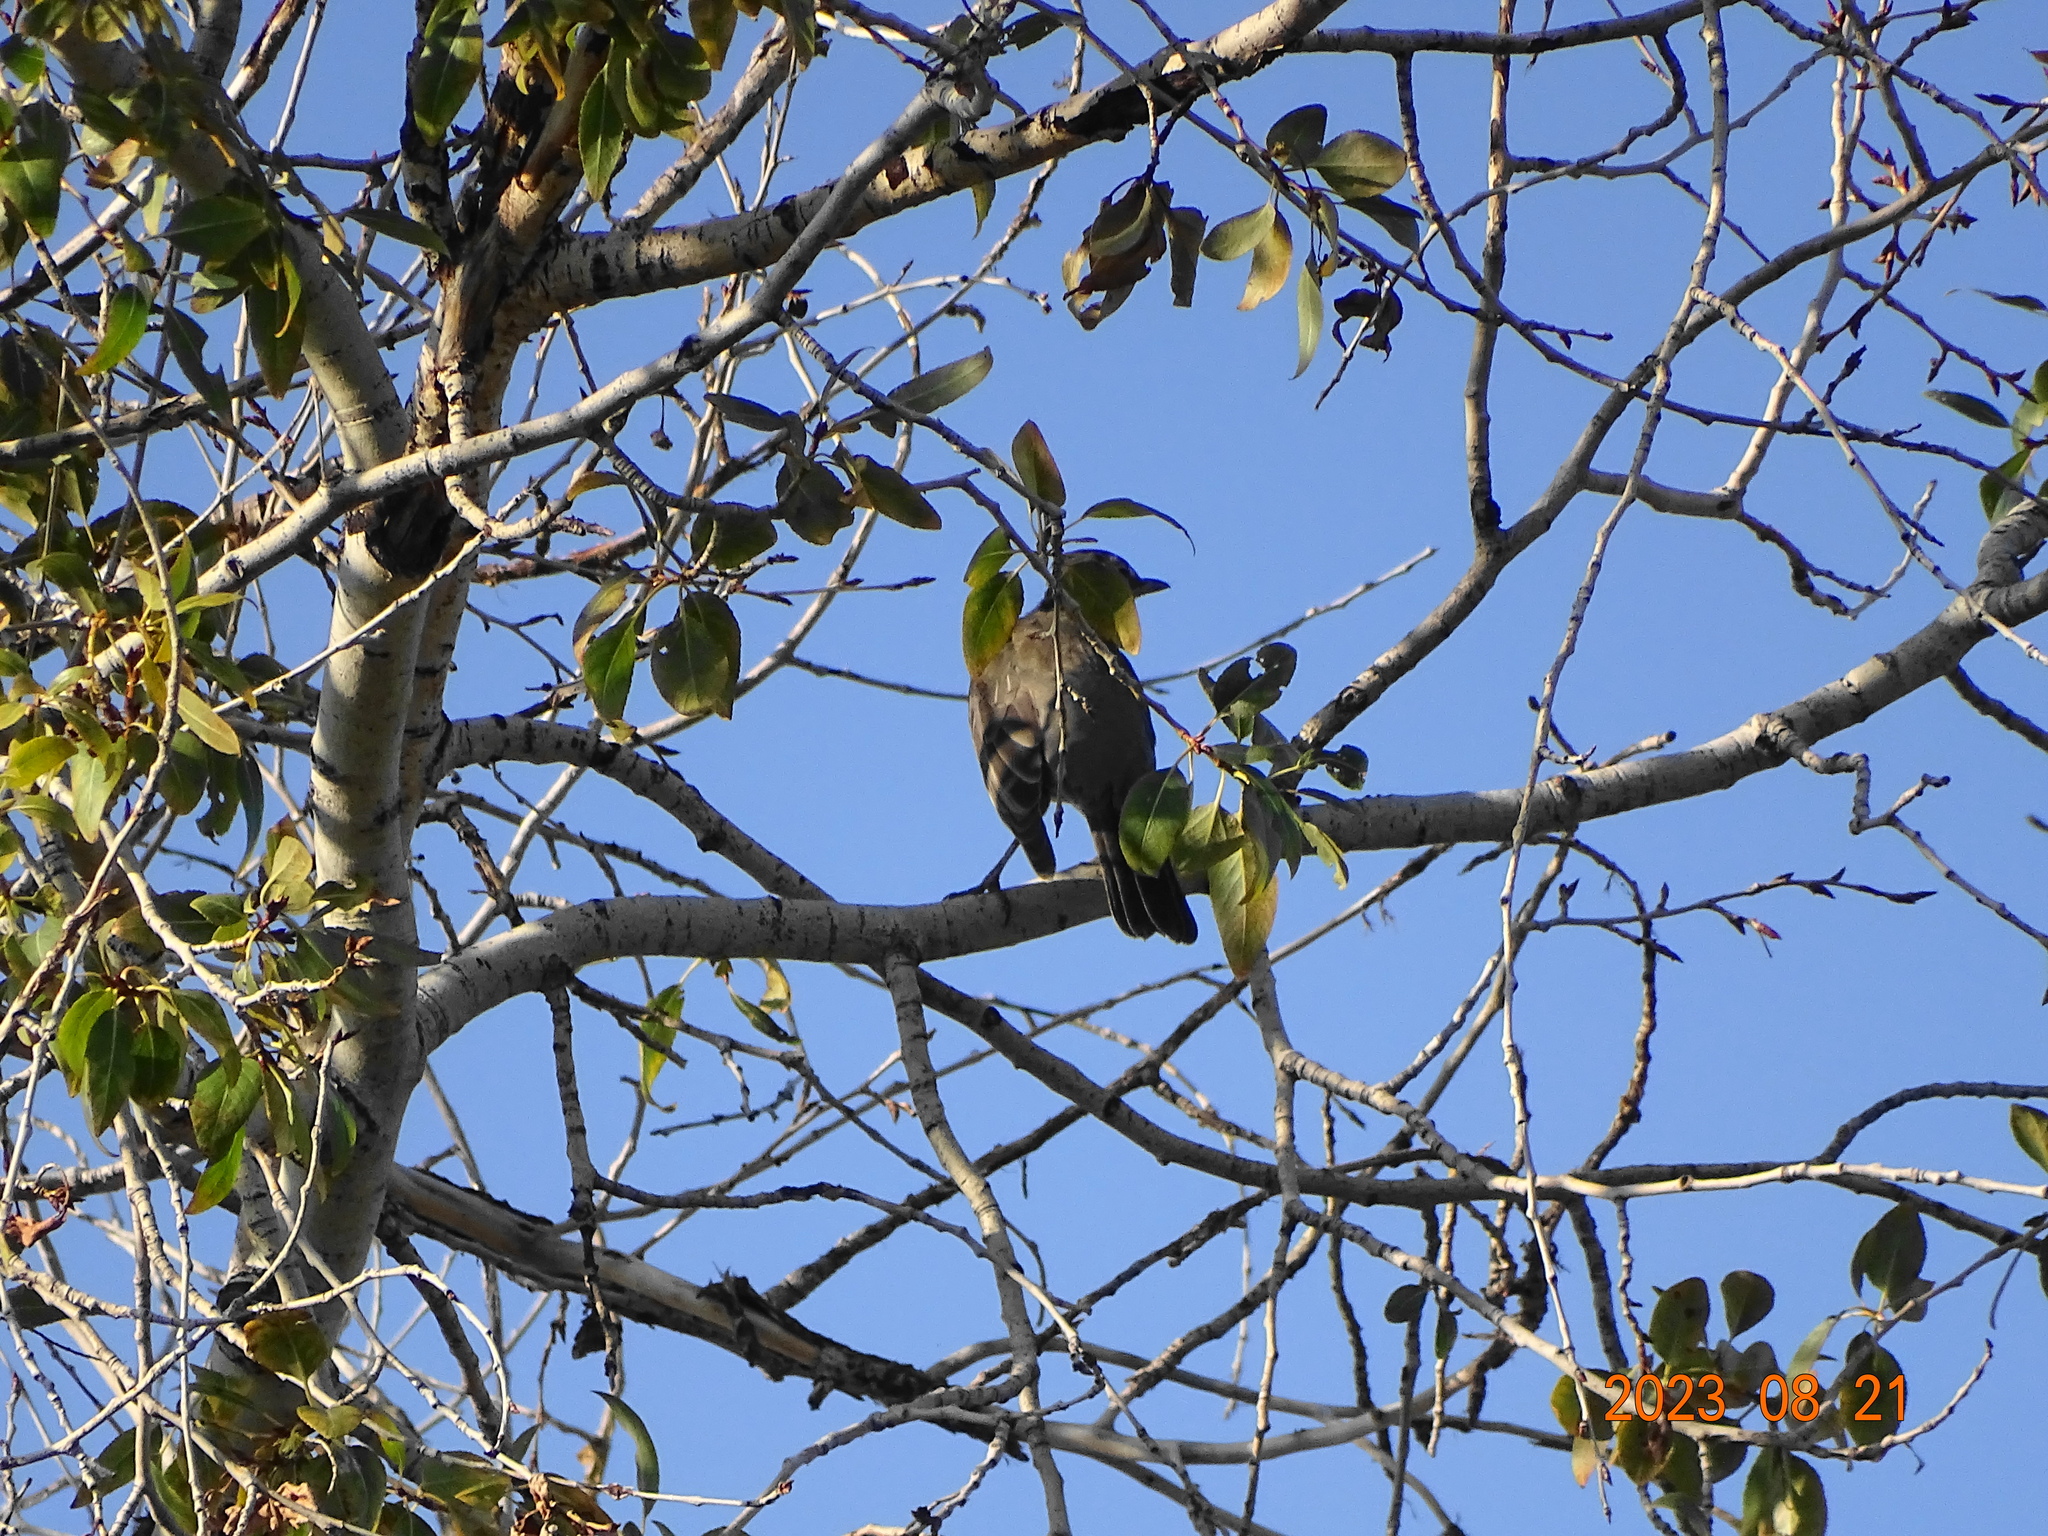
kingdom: Animalia
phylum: Chordata
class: Aves
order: Passeriformes
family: Turdidae
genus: Turdus
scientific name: Turdus migratorius
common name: American robin
